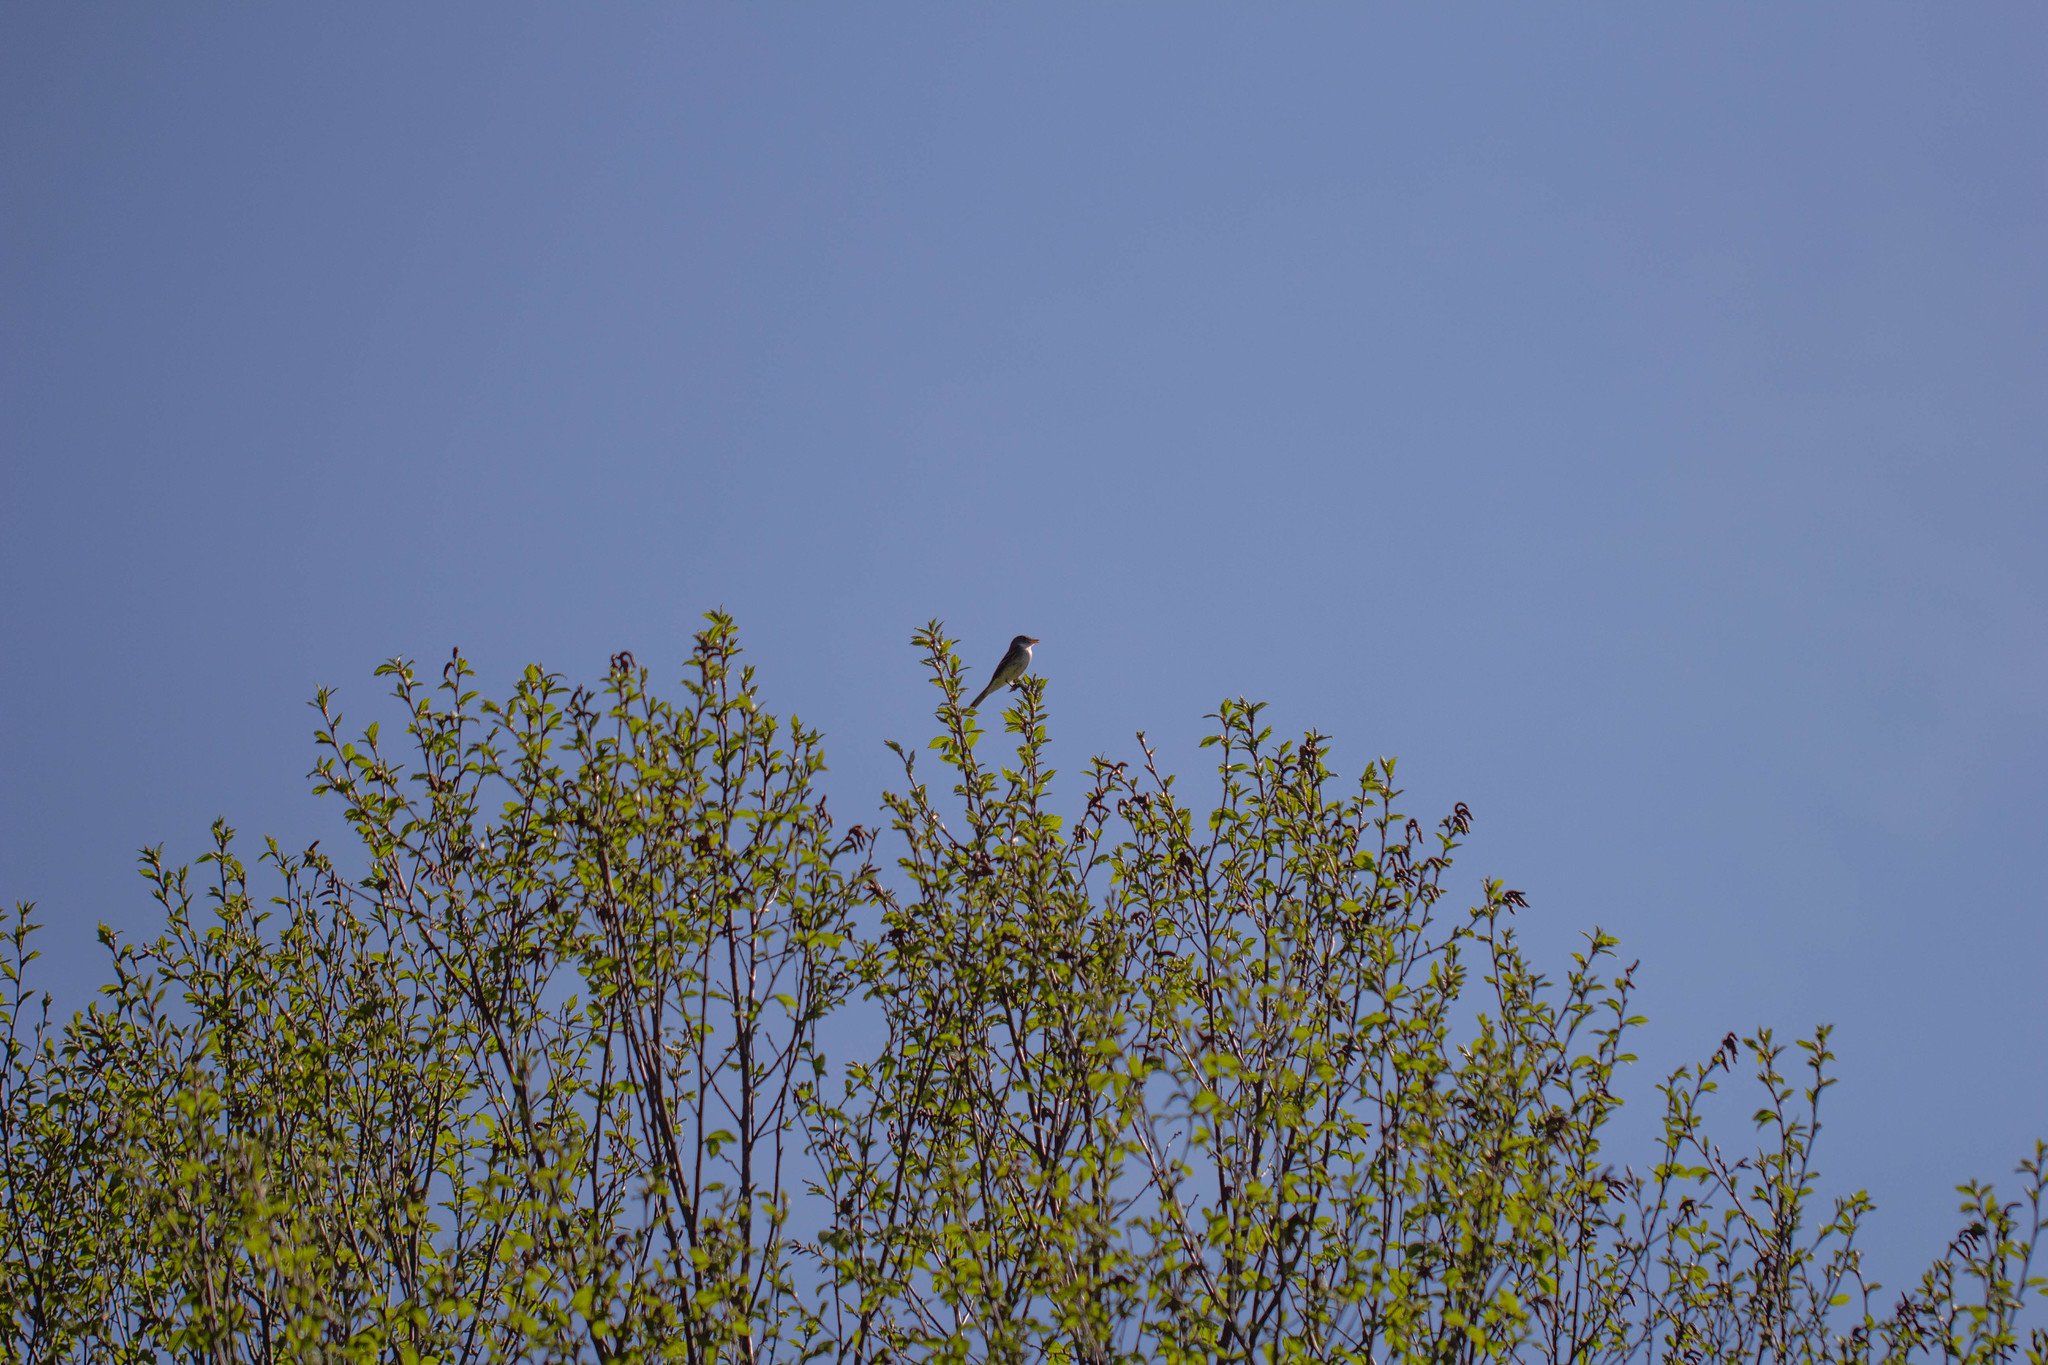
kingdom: Animalia
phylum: Chordata
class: Aves
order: Passeriformes
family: Tyrannidae
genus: Empidonax
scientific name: Empidonax alnorum
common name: Alder flycatcher
